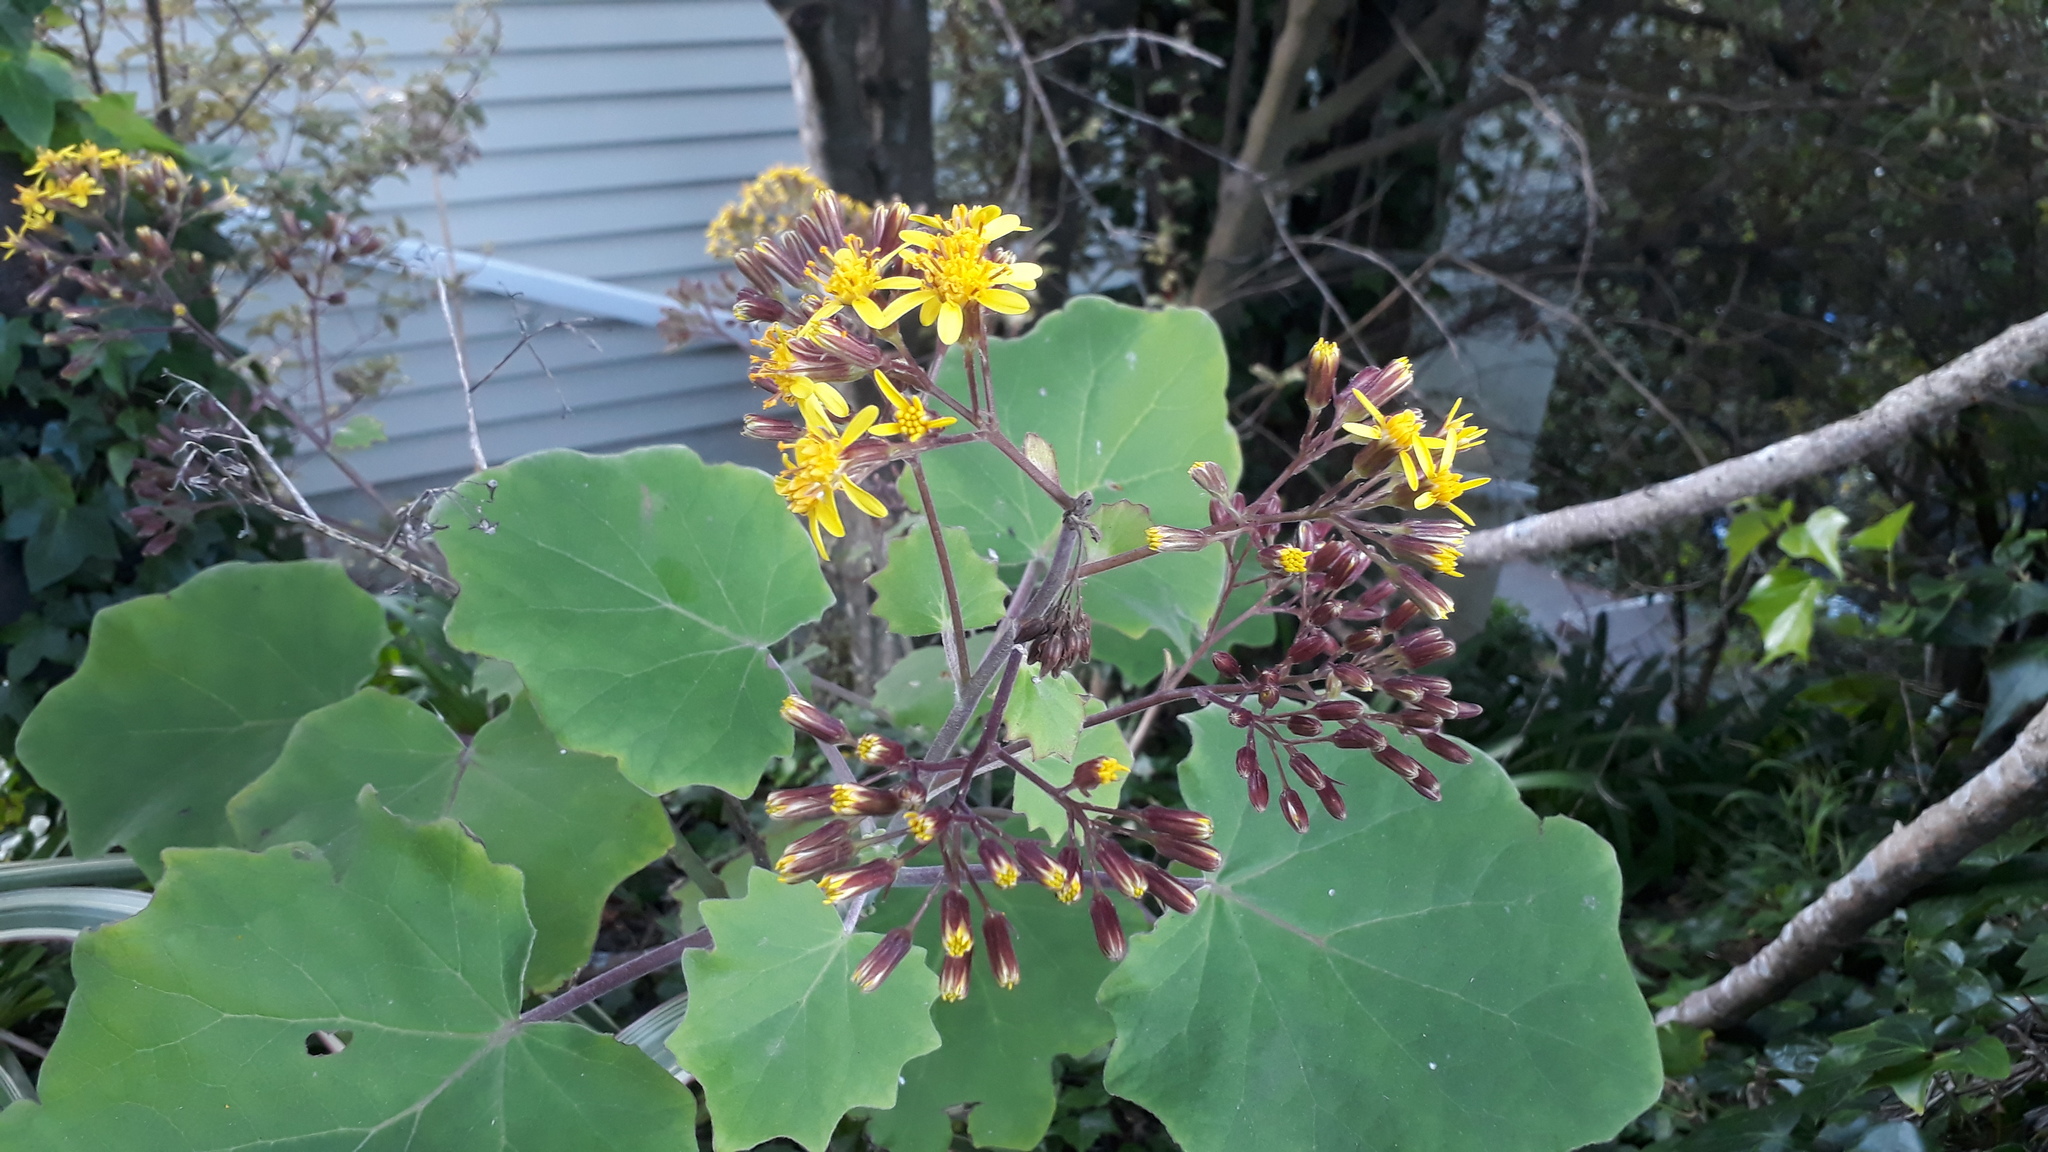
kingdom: Plantae
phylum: Tracheophyta
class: Magnoliopsida
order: Asterales
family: Asteraceae
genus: Roldana
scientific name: Roldana petasitis
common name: California-geranium
